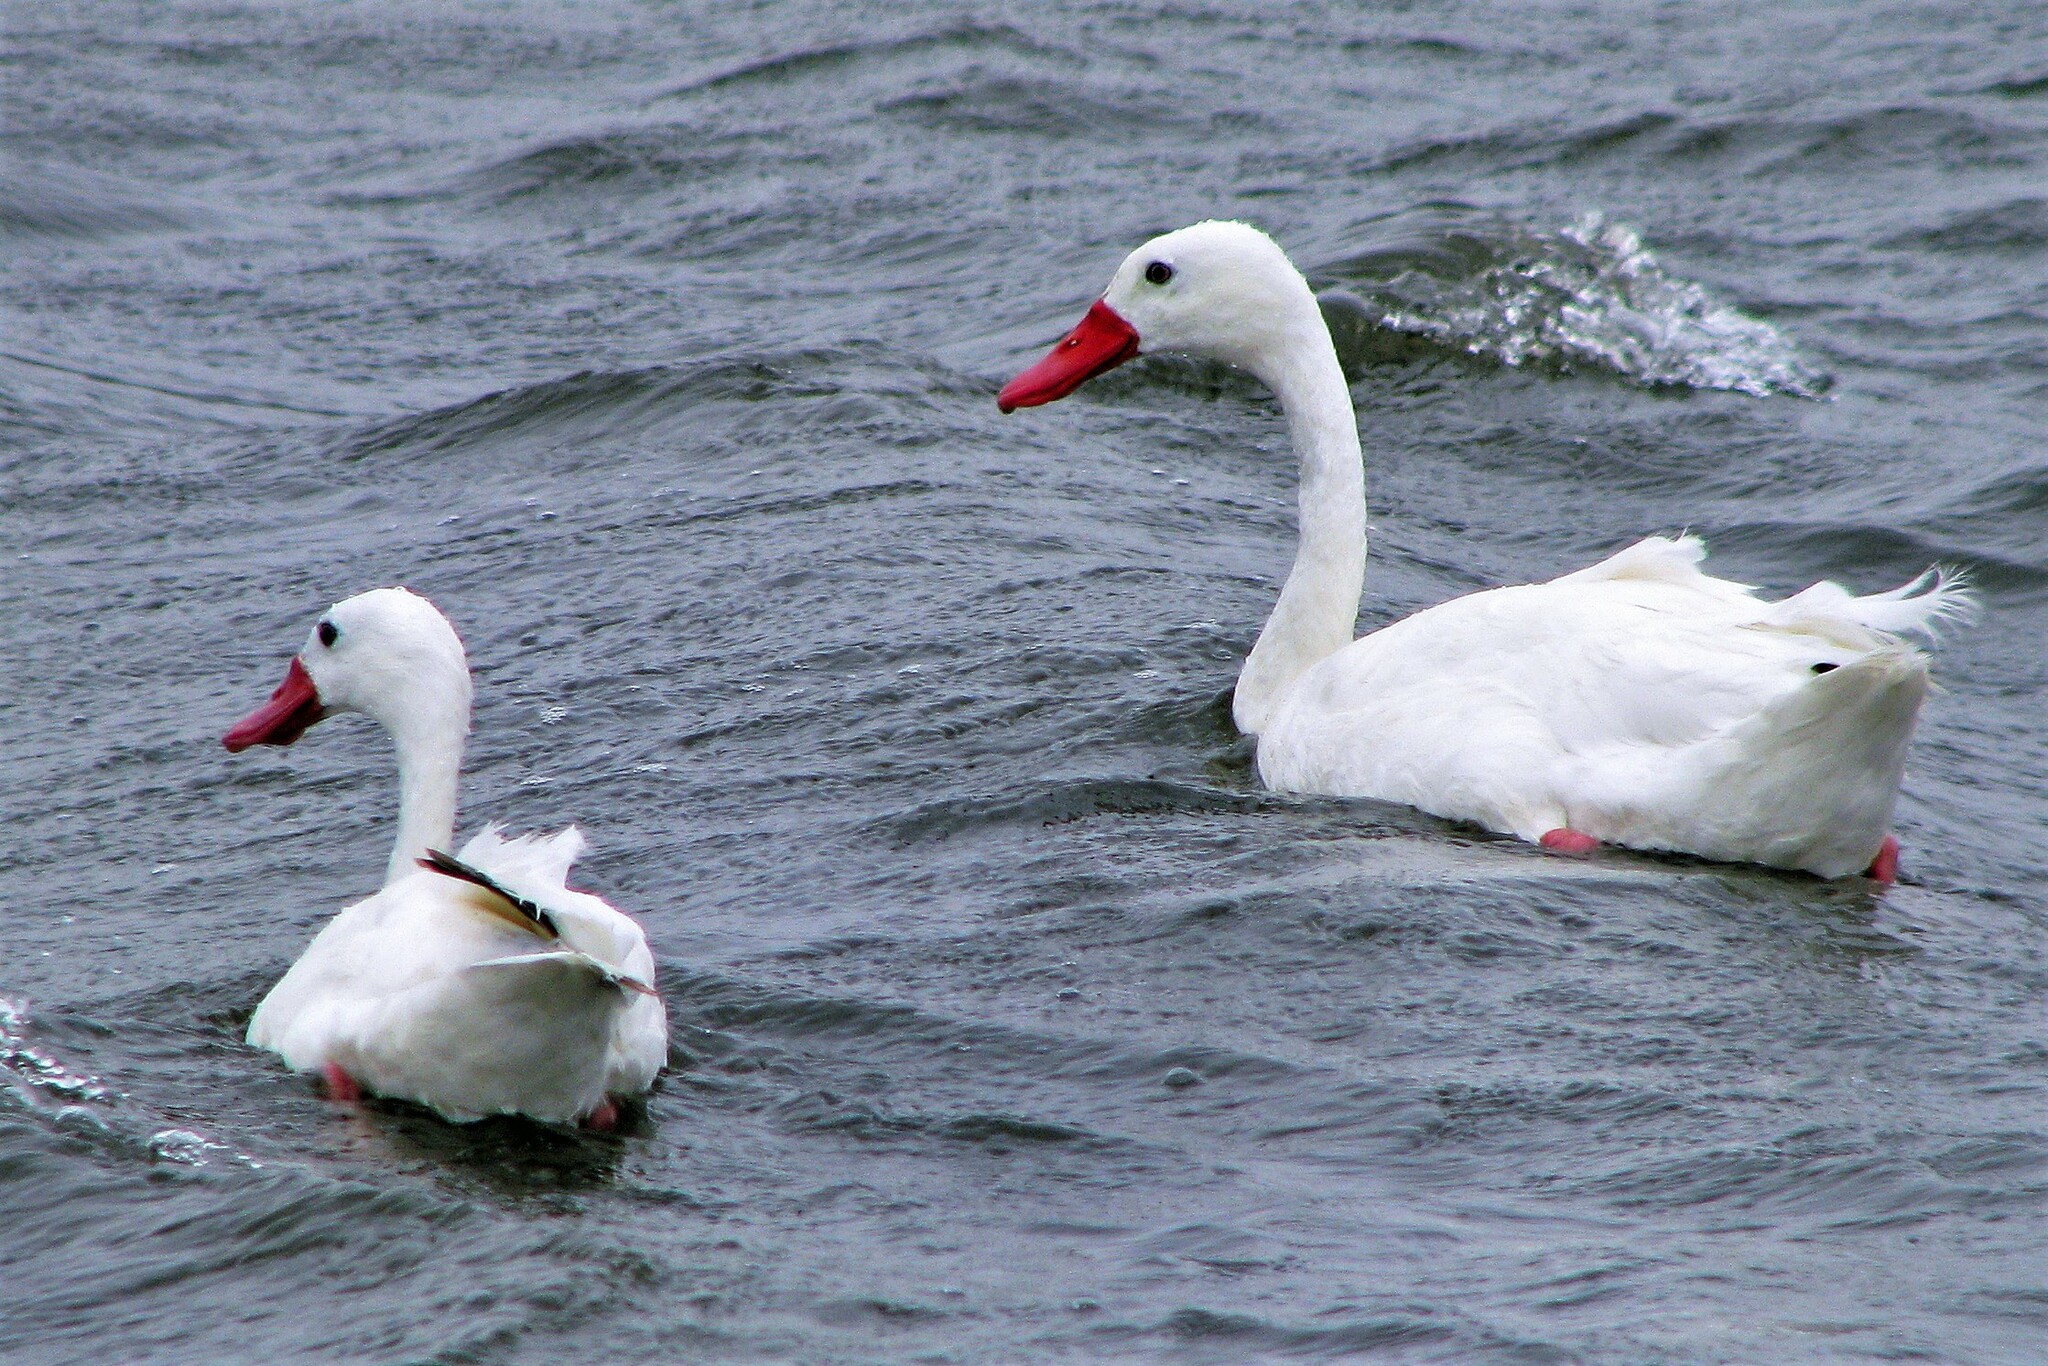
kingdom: Animalia
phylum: Chordata
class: Aves
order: Anseriformes
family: Anatidae
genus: Coscoroba
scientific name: Coscoroba coscoroba
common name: Coscoroba swan
